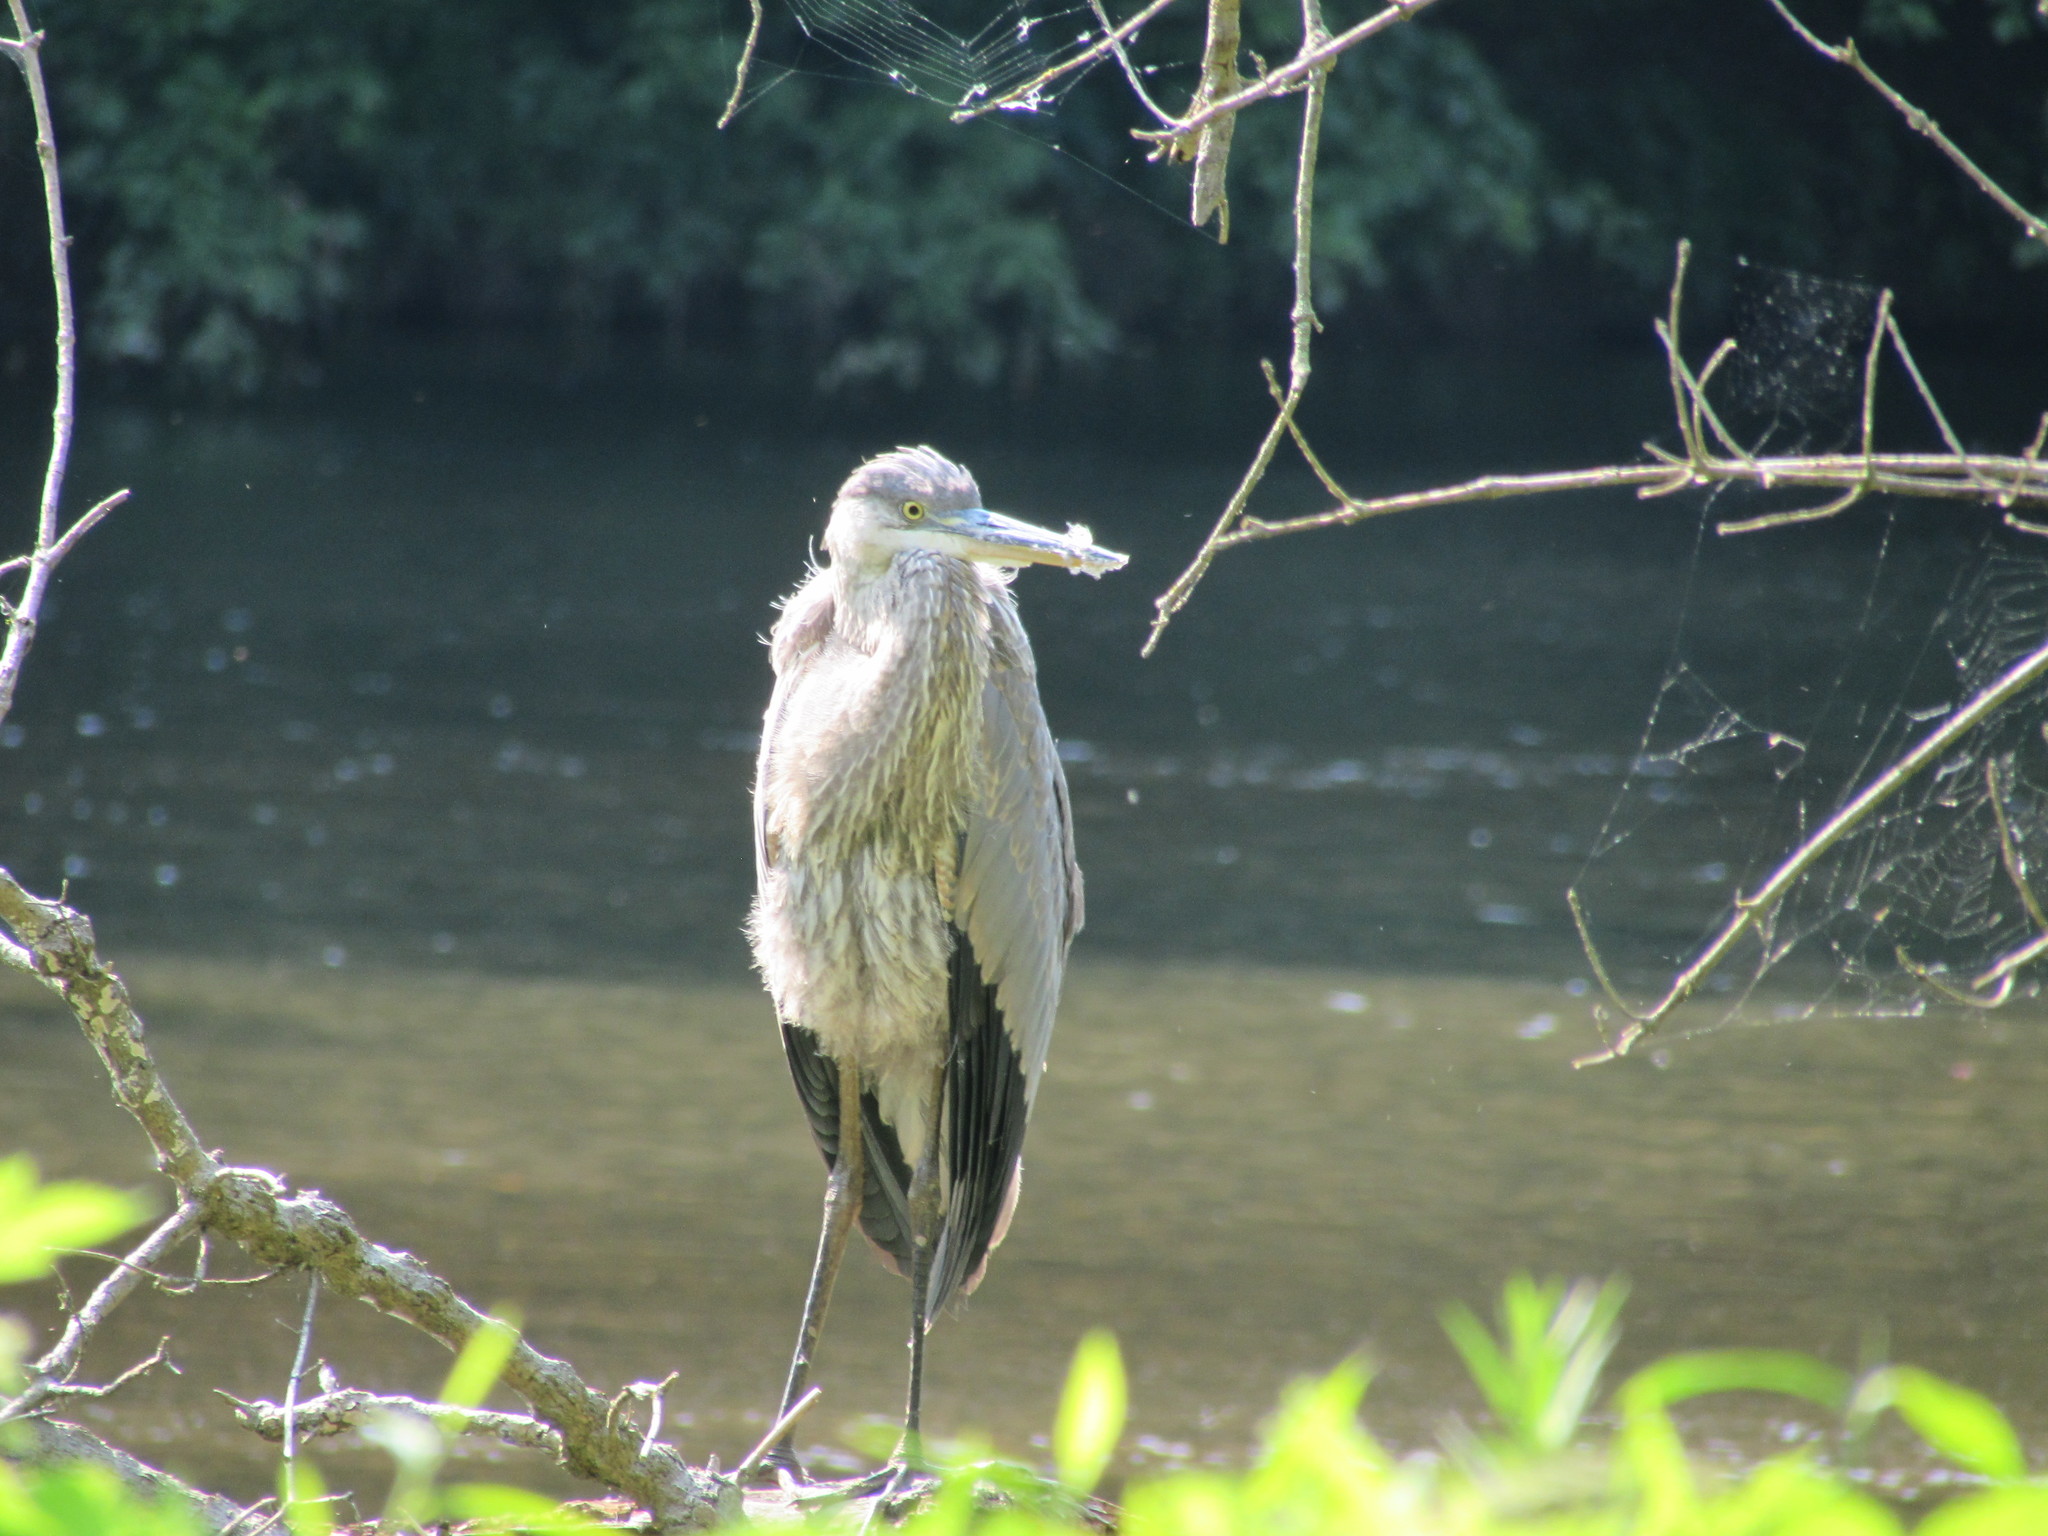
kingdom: Animalia
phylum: Chordata
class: Aves
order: Pelecaniformes
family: Ardeidae
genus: Ardea
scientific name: Ardea herodias
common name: Great blue heron
